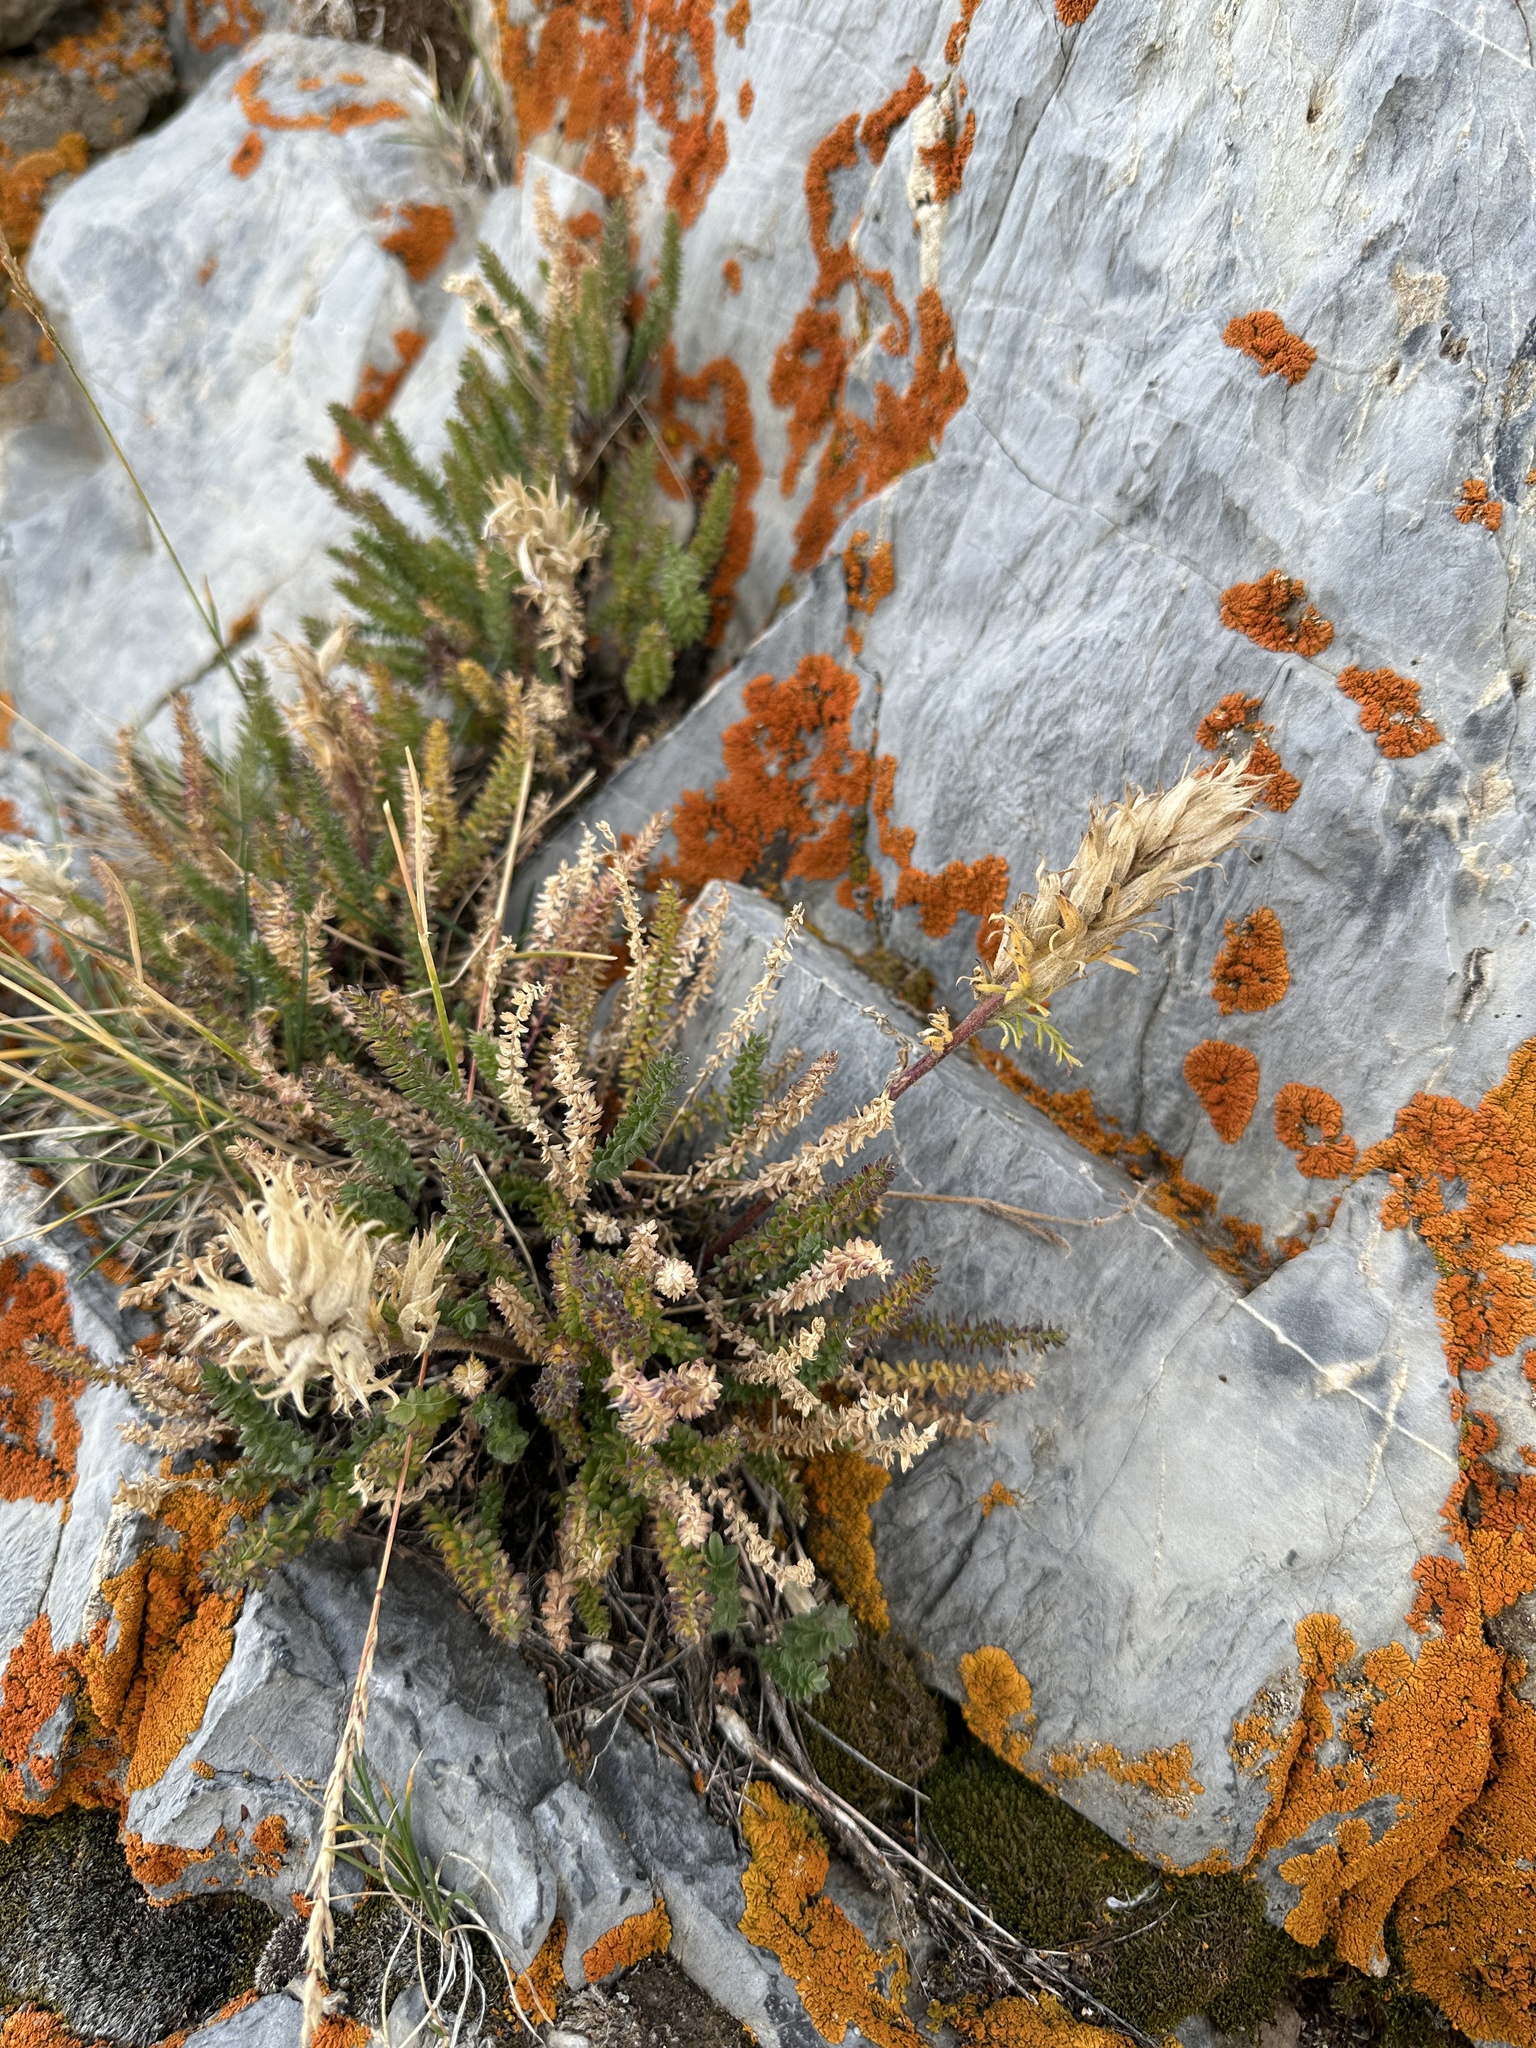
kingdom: Plantae
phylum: Tracheophyta
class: Magnoliopsida
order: Ericales
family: Polemoniaceae
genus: Polemonium
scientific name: Polemonium viscosum
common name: Skunk jacob's-ladder
